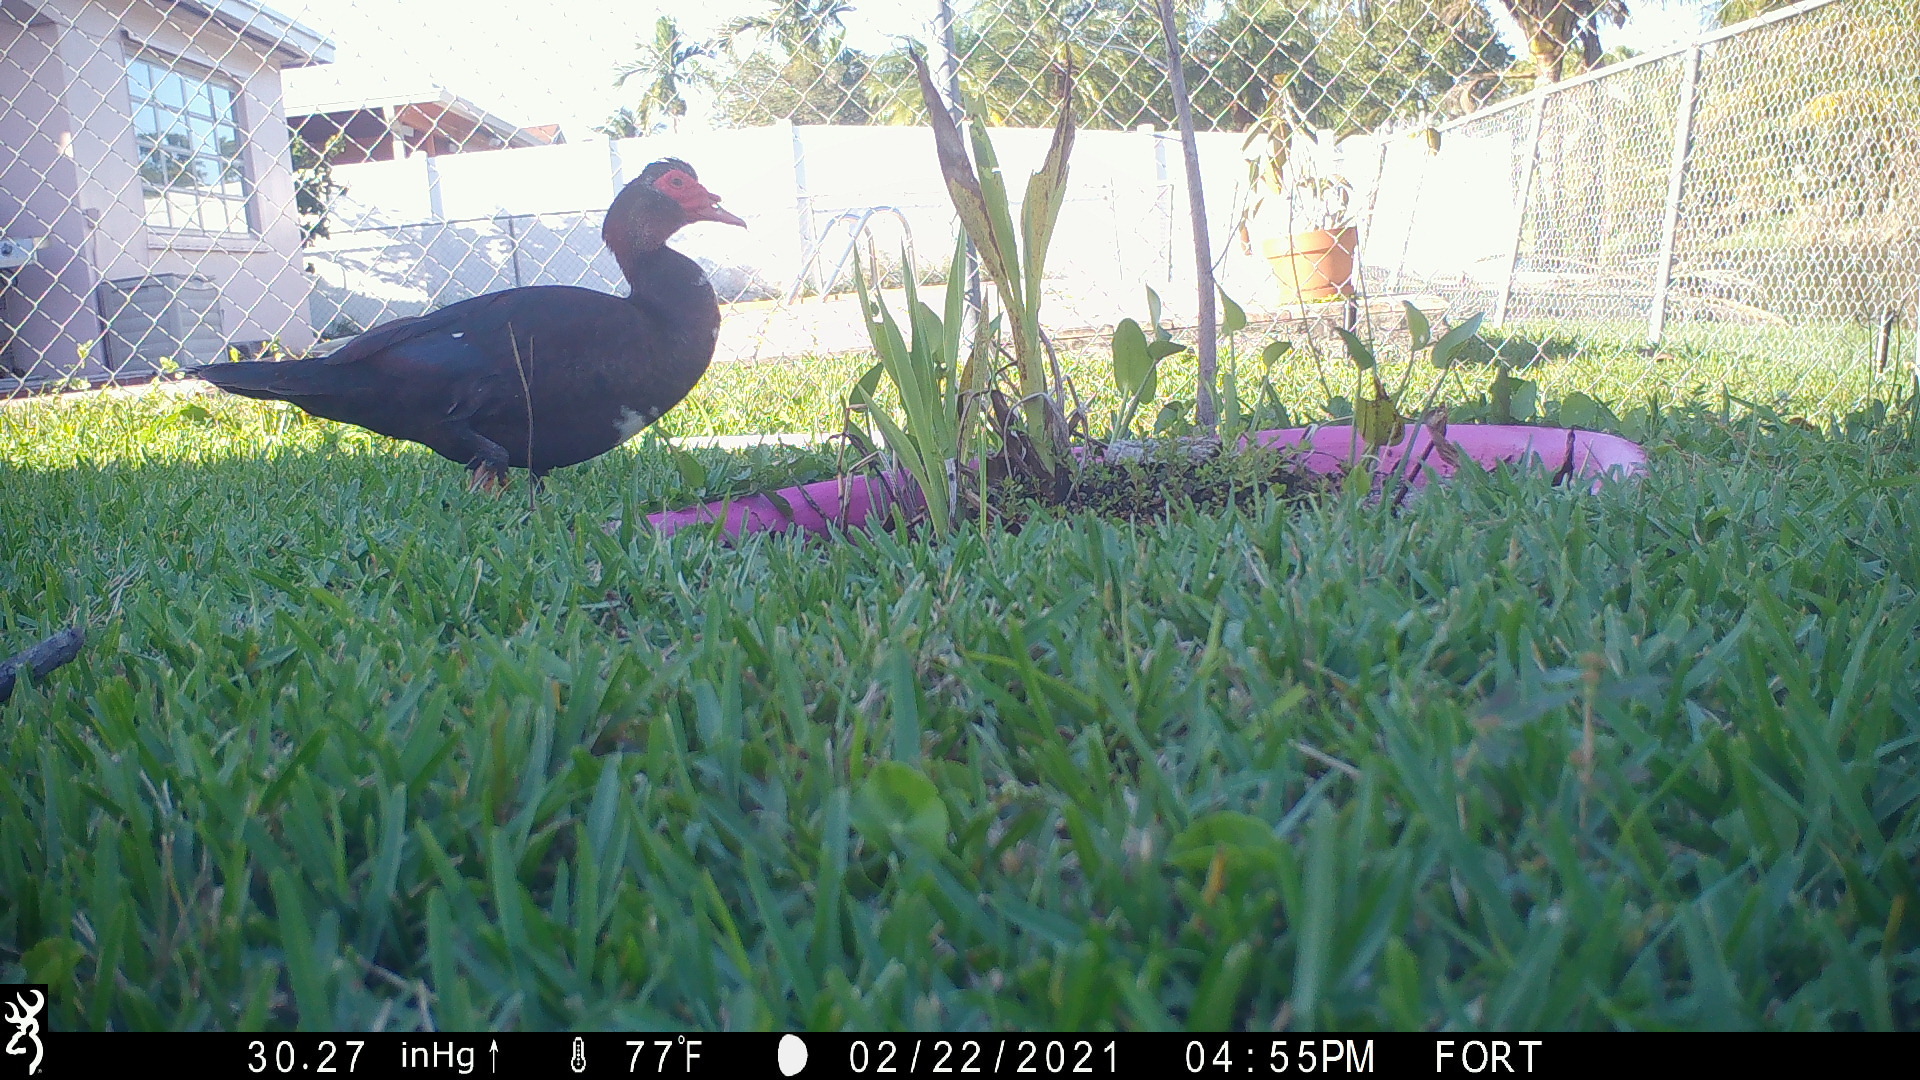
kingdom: Animalia
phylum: Chordata
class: Aves
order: Anseriformes
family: Anatidae
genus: Cairina
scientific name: Cairina moschata
